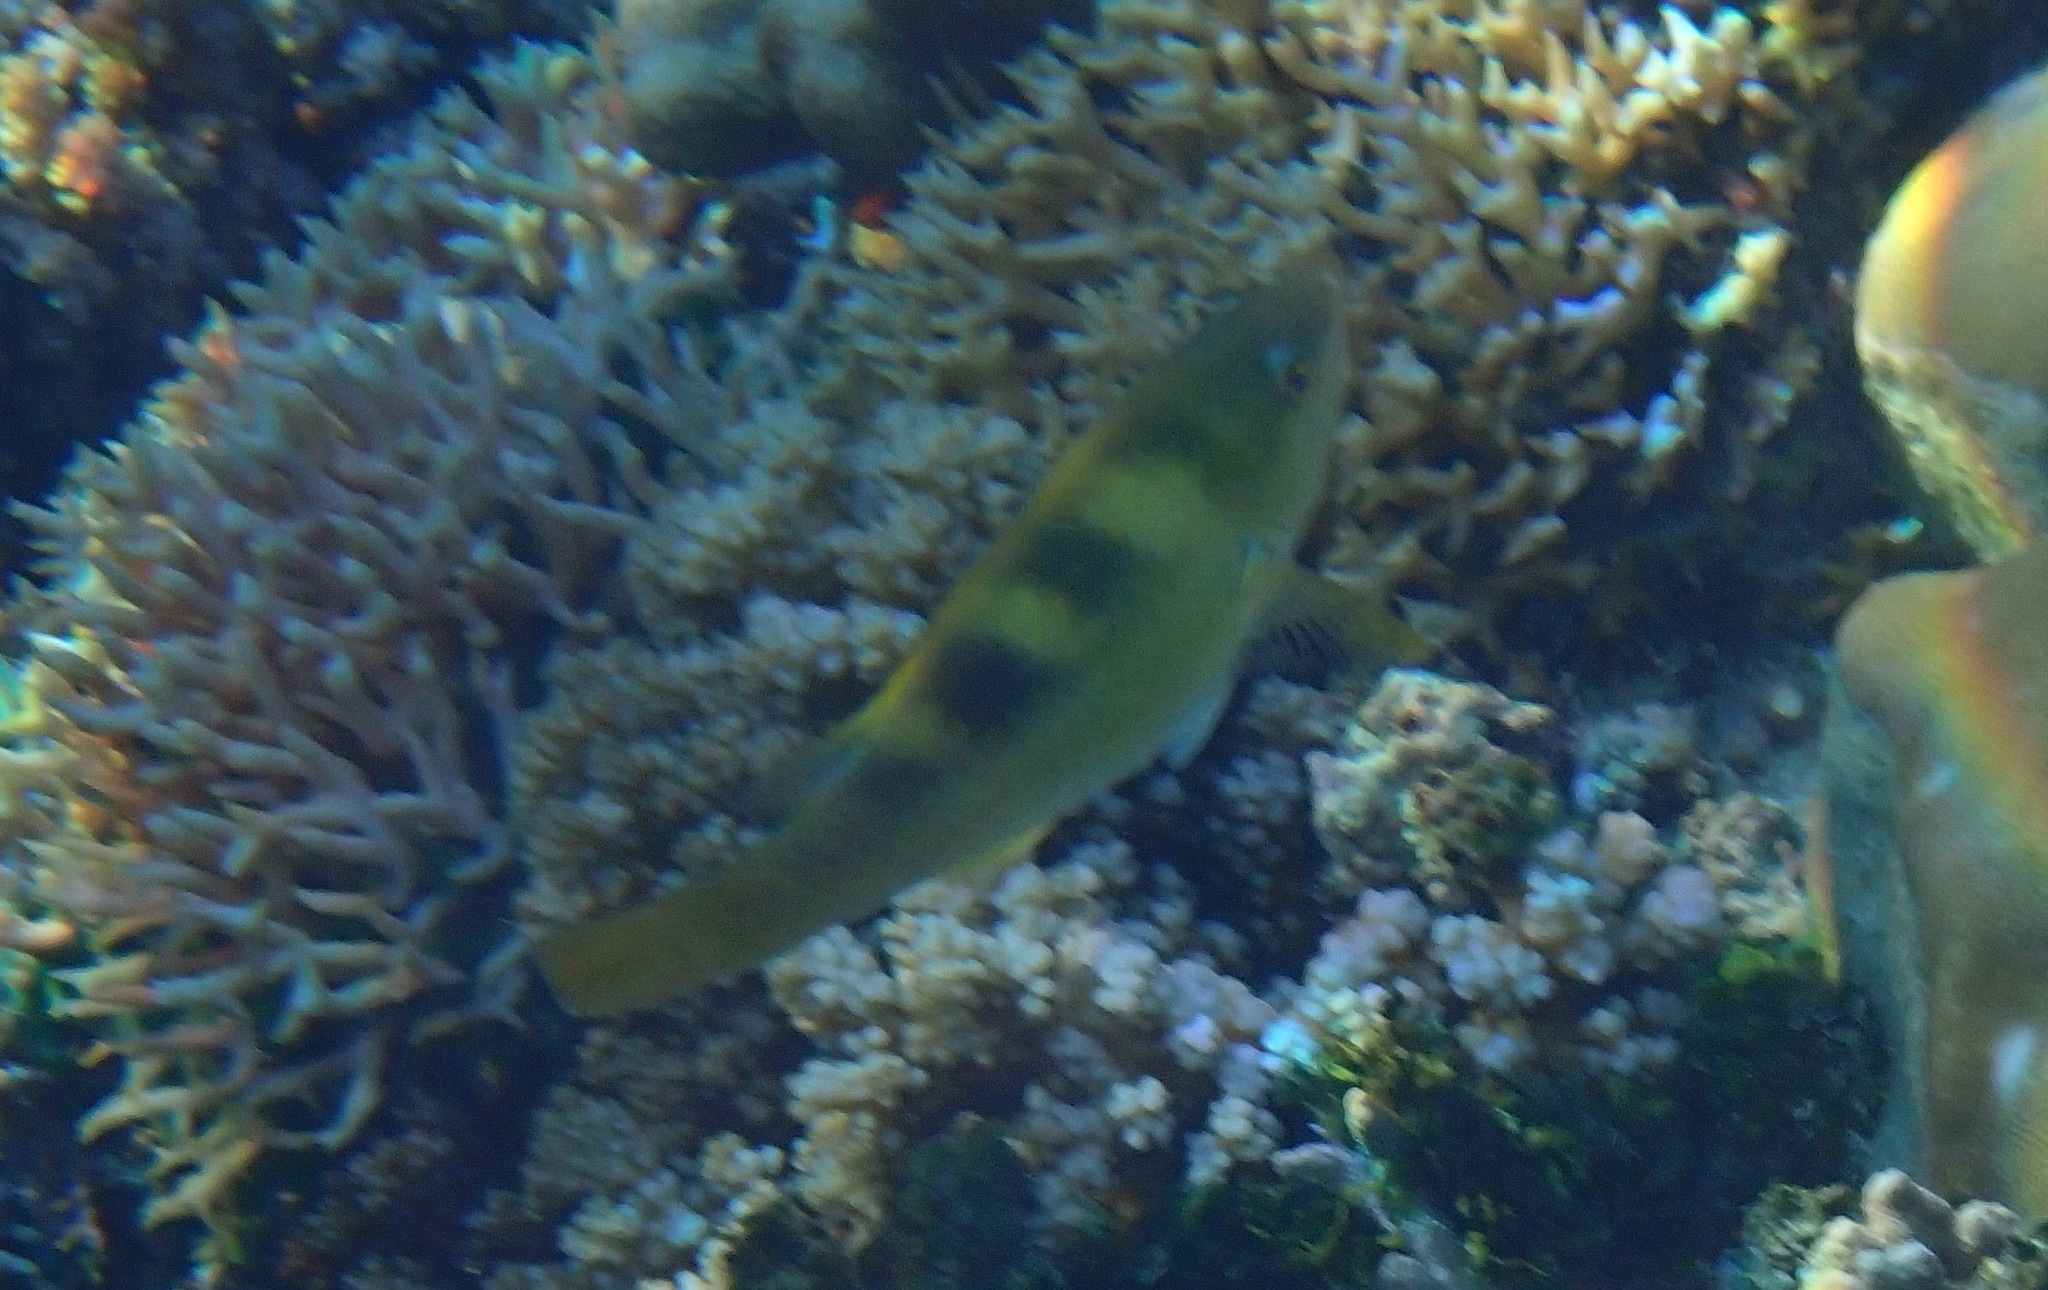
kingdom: Animalia
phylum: Chordata
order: Perciformes
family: Scaridae
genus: Scarus
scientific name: Scarus dimidiatus
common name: Yellowbarred parrotfish
